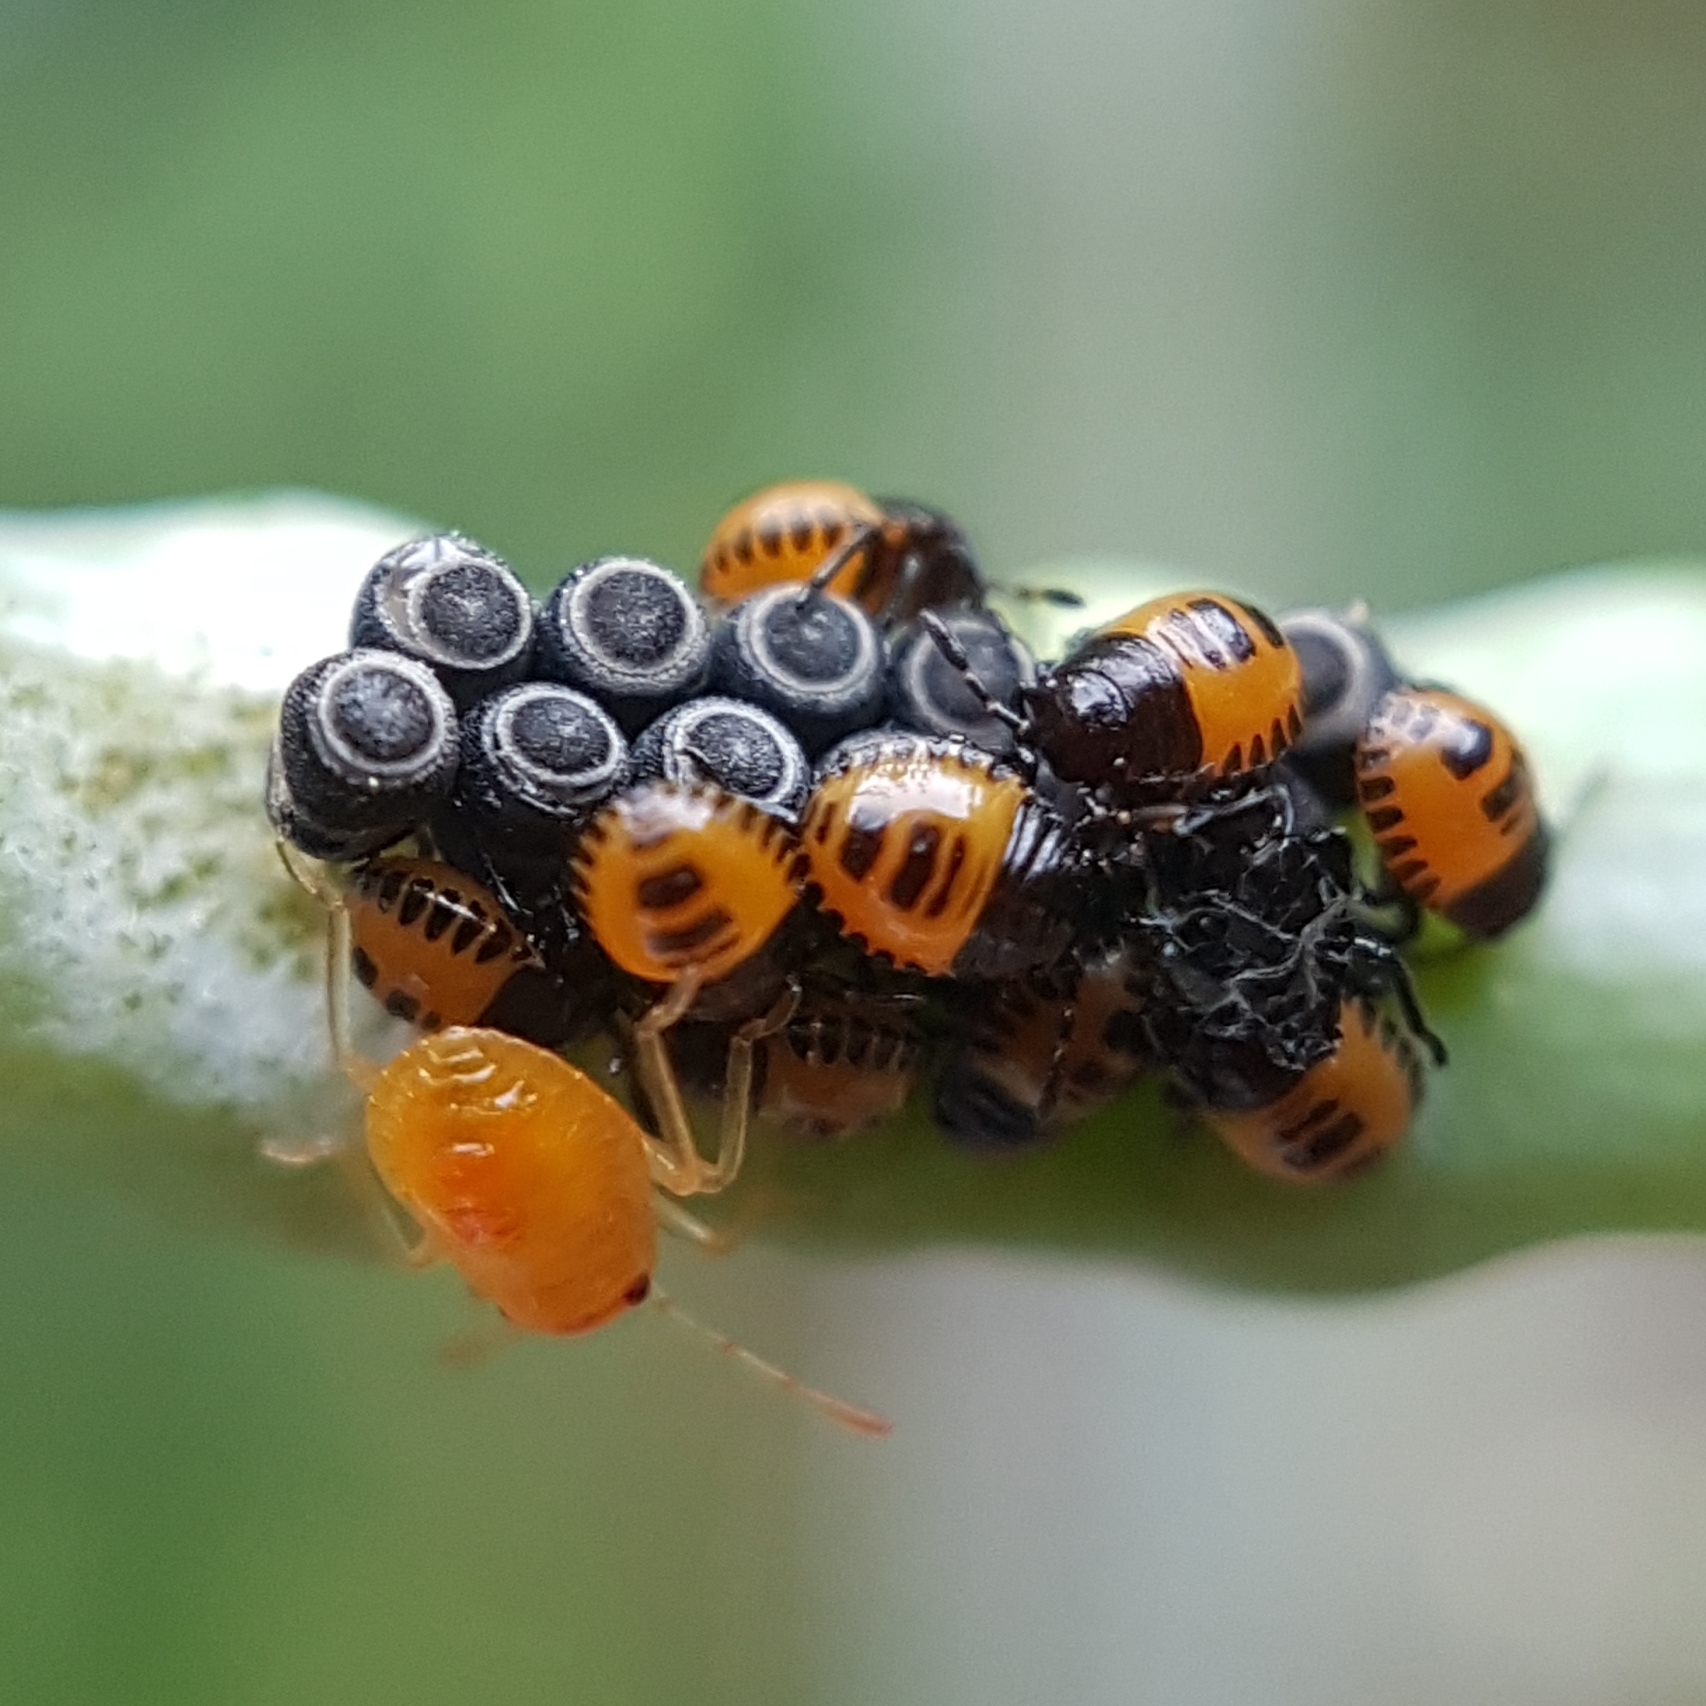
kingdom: Animalia
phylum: Arthropoda
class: Insecta
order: Hemiptera
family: Pentatomidae
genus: Eurydema
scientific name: Eurydema ventralis
